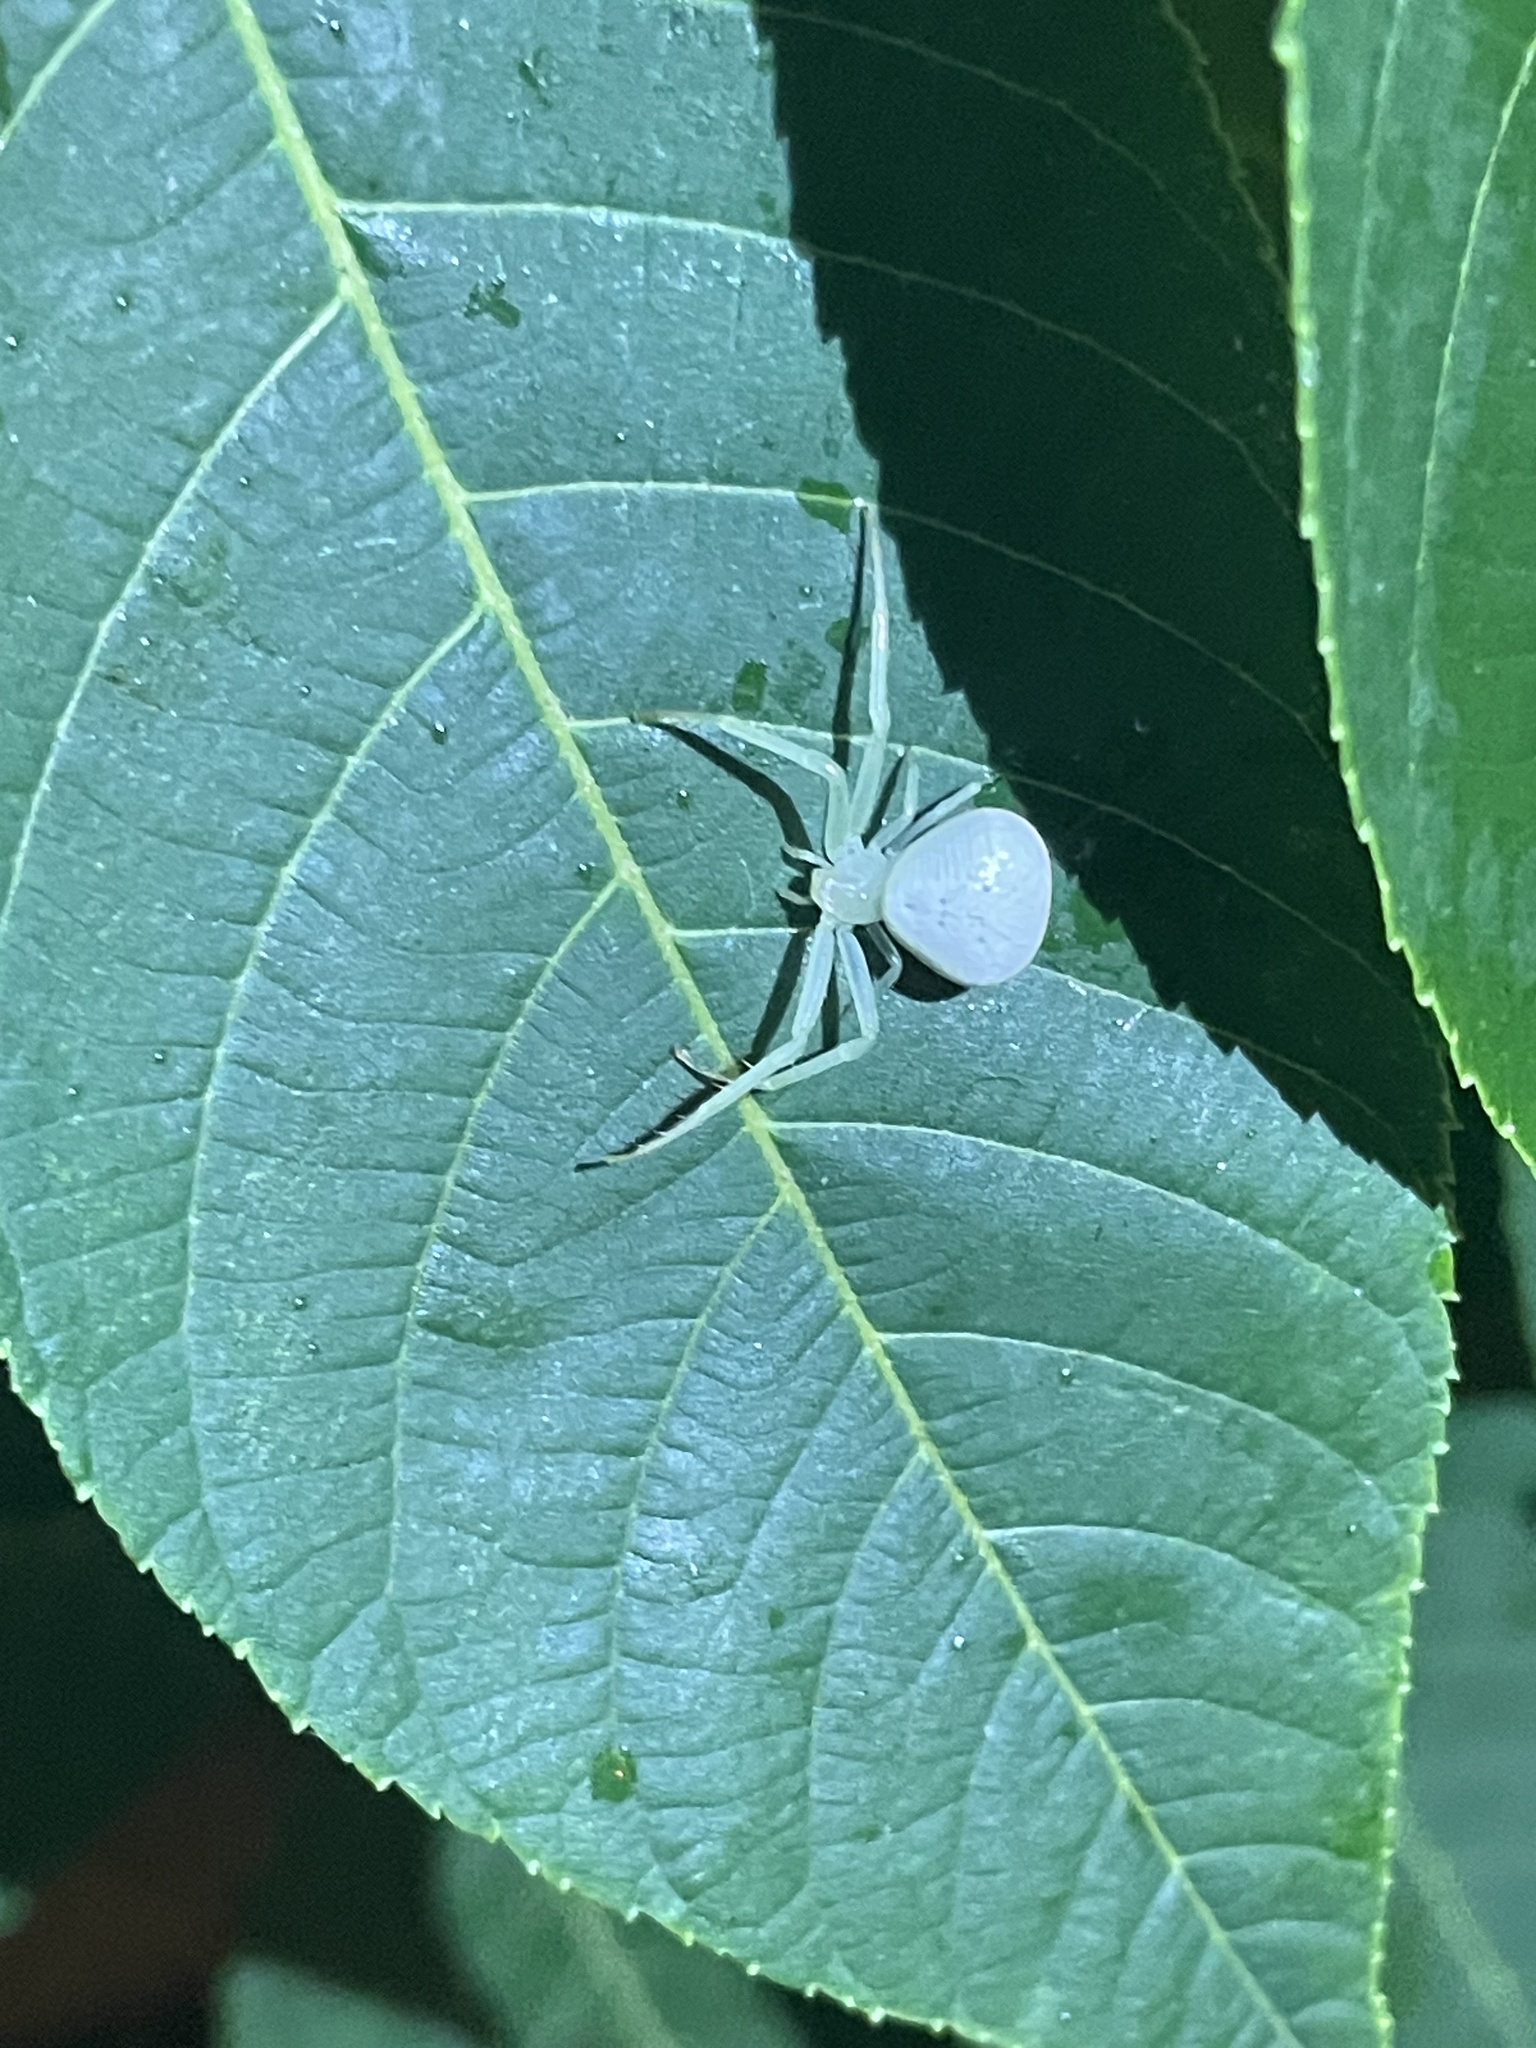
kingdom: Animalia
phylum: Arthropoda
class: Arachnida
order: Araneae
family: Thomisidae
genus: Misumessus
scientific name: Misumessus oblongus
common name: American green crab spider
